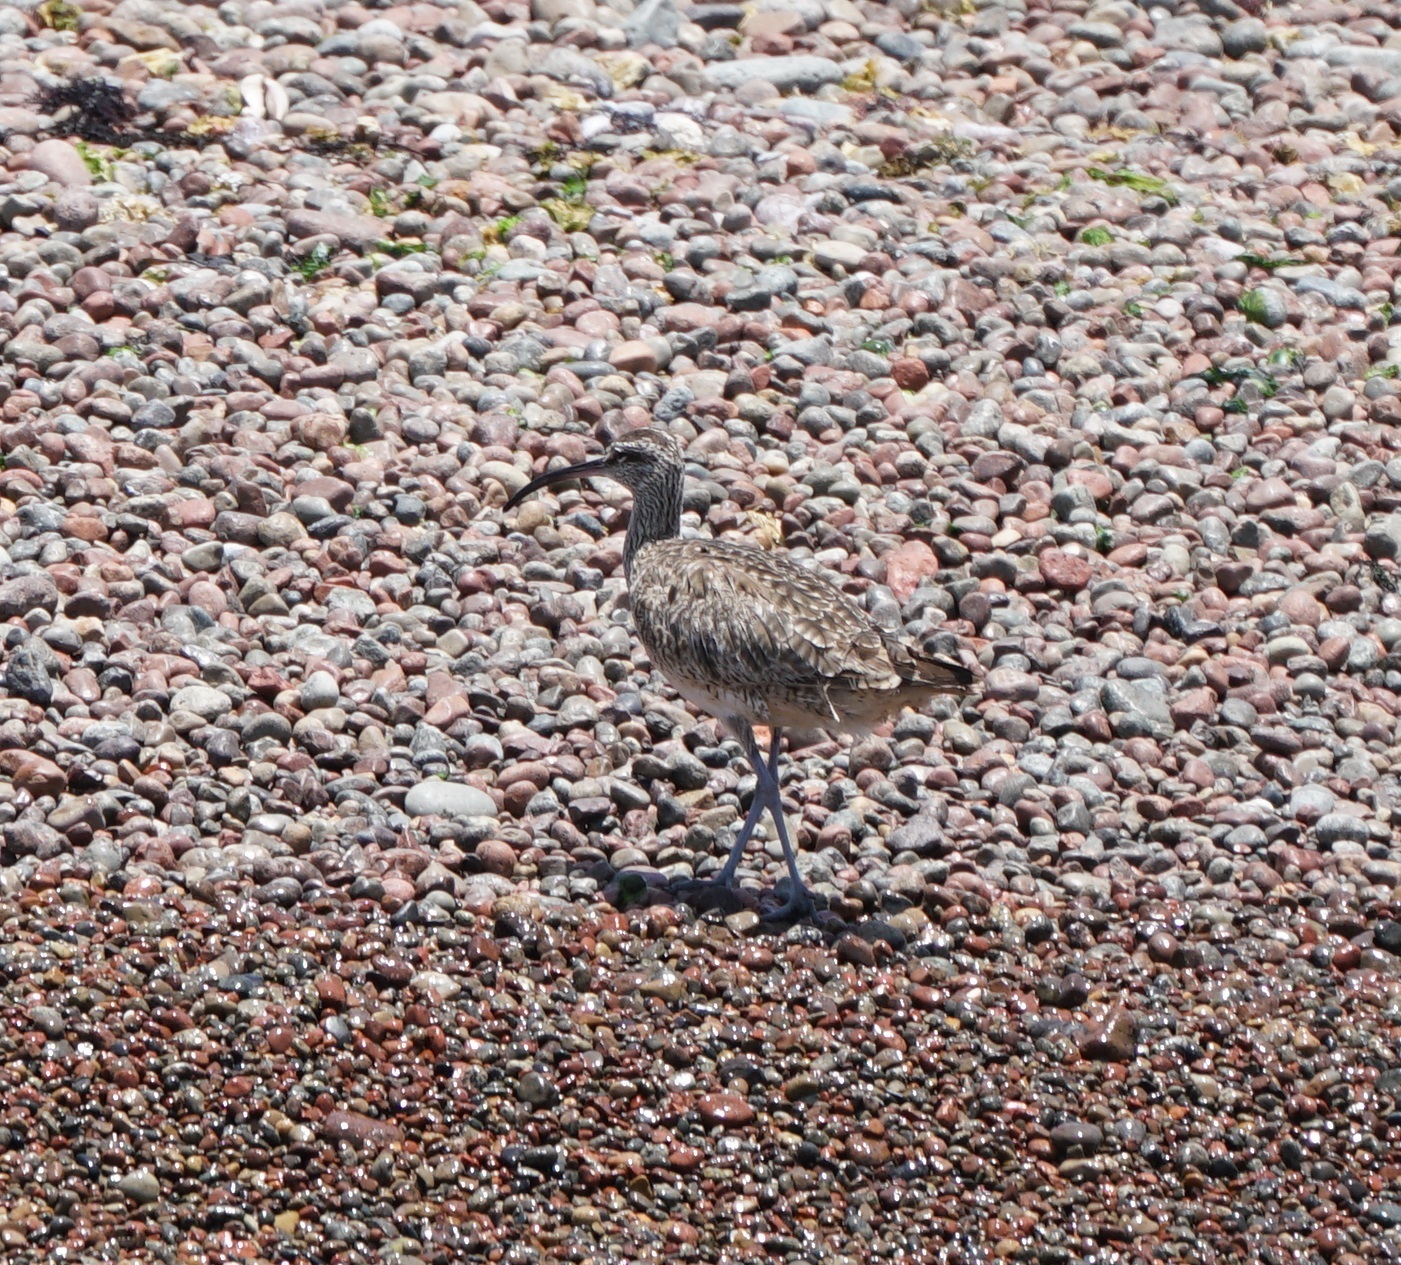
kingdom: Animalia
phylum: Chordata
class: Aves
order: Charadriiformes
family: Scolopacidae
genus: Numenius
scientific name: Numenius phaeopus
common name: Whimbrel
